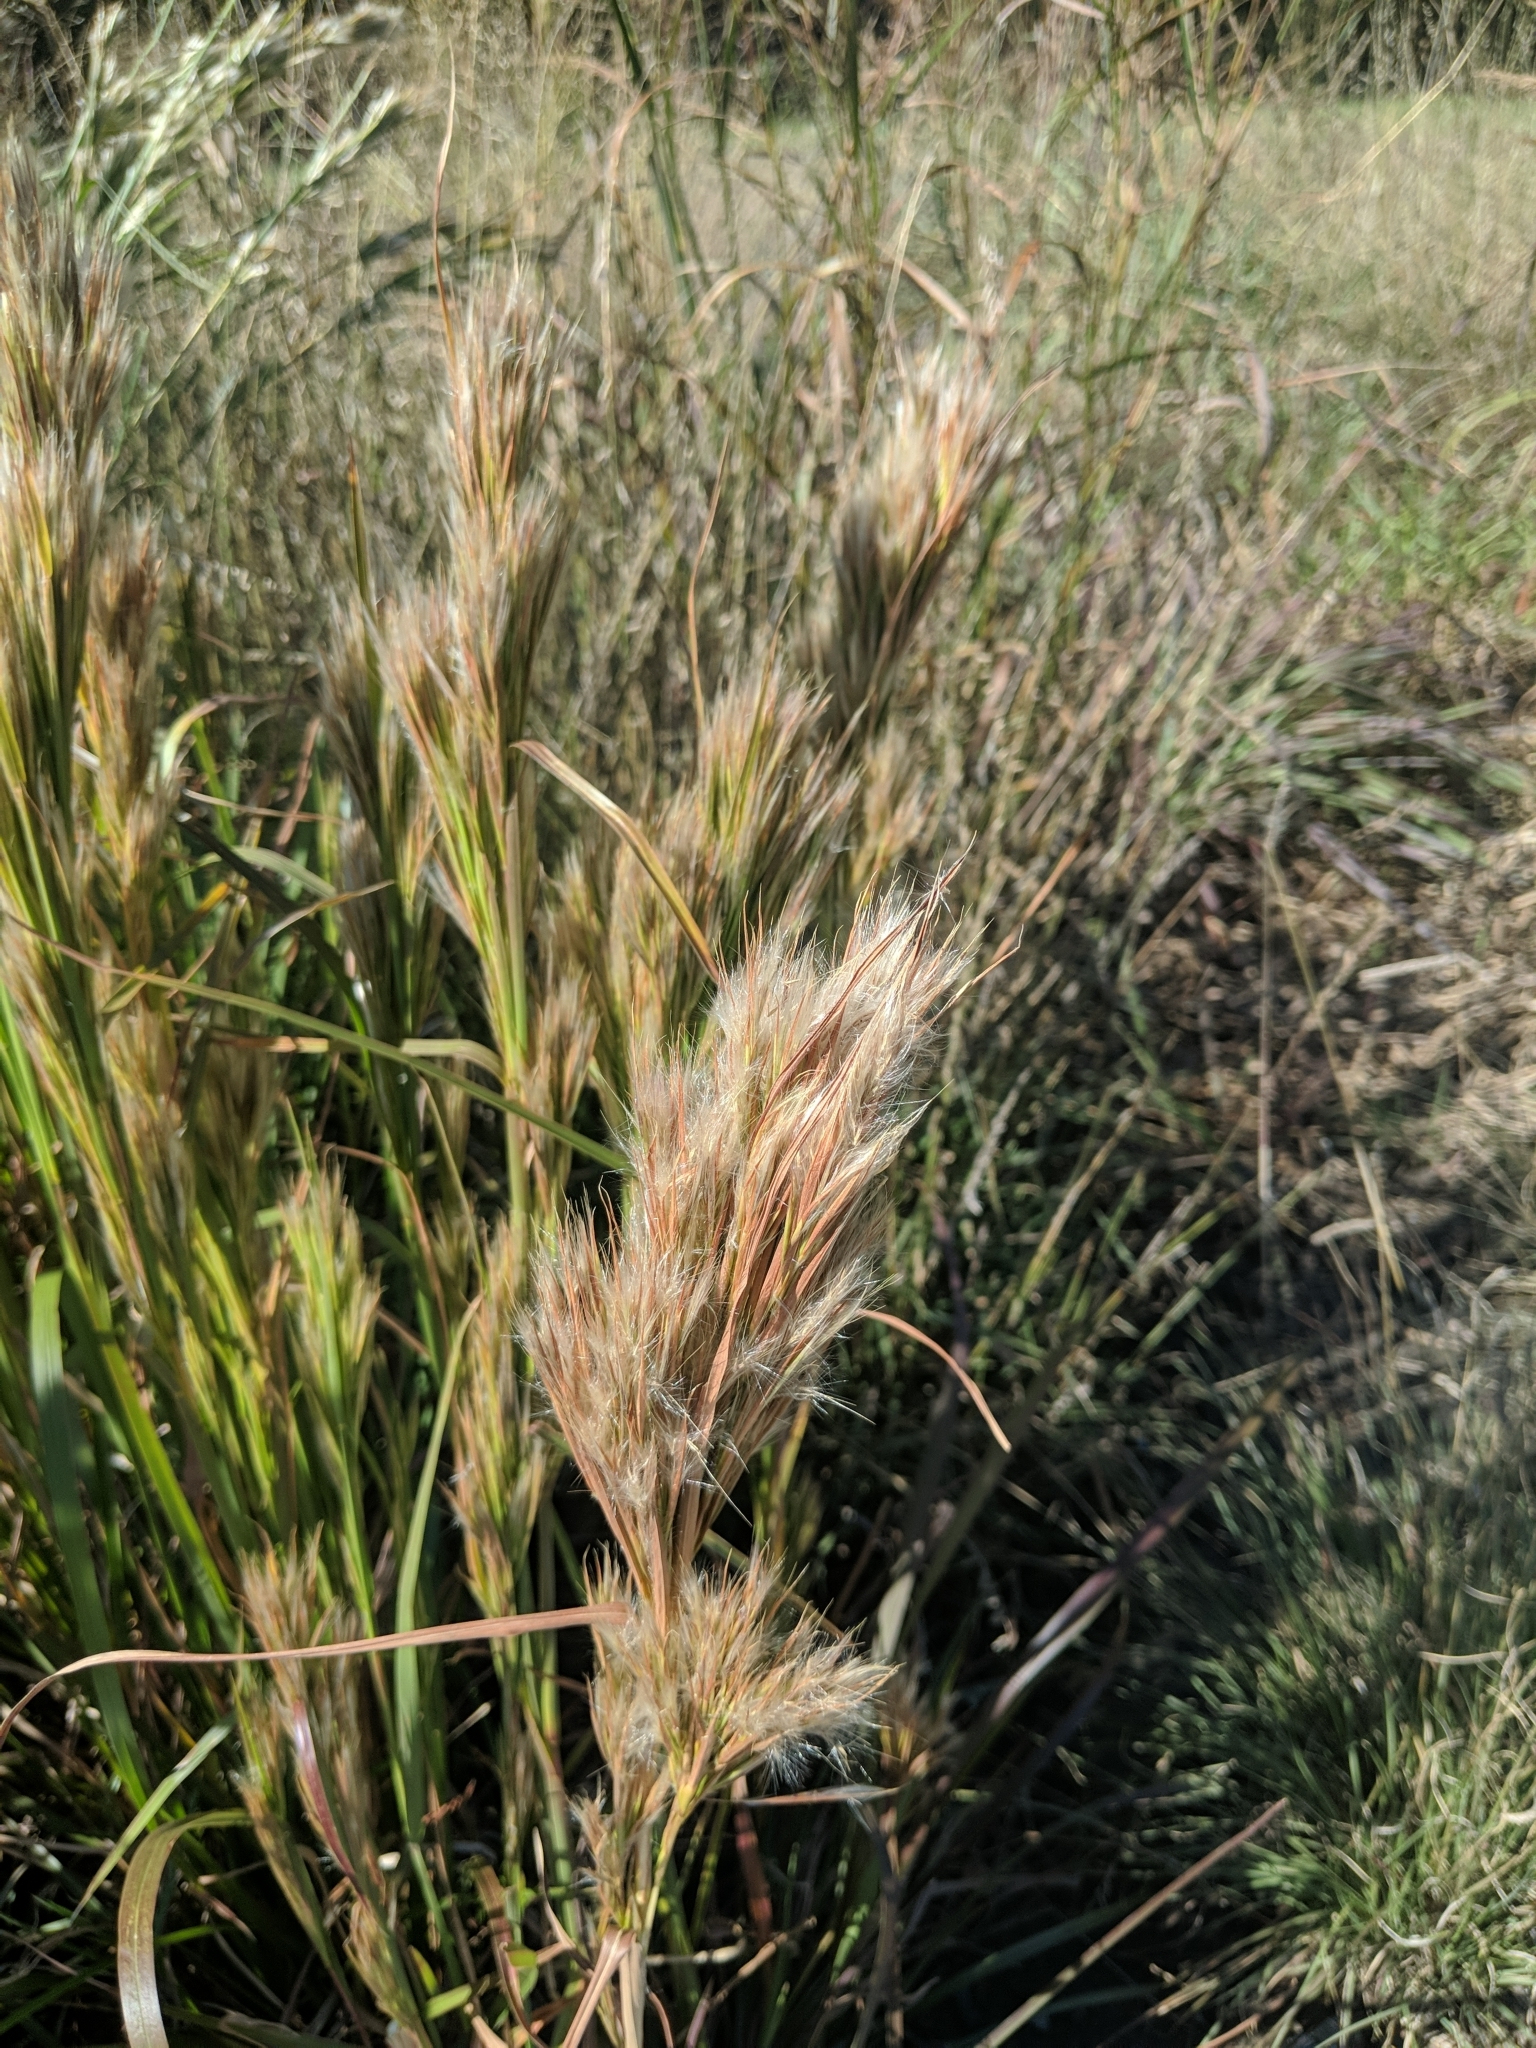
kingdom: Plantae
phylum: Tracheophyta
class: Liliopsida
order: Poales
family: Poaceae
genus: Andropogon
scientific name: Andropogon tenuispatheus
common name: Bushy bluestem
